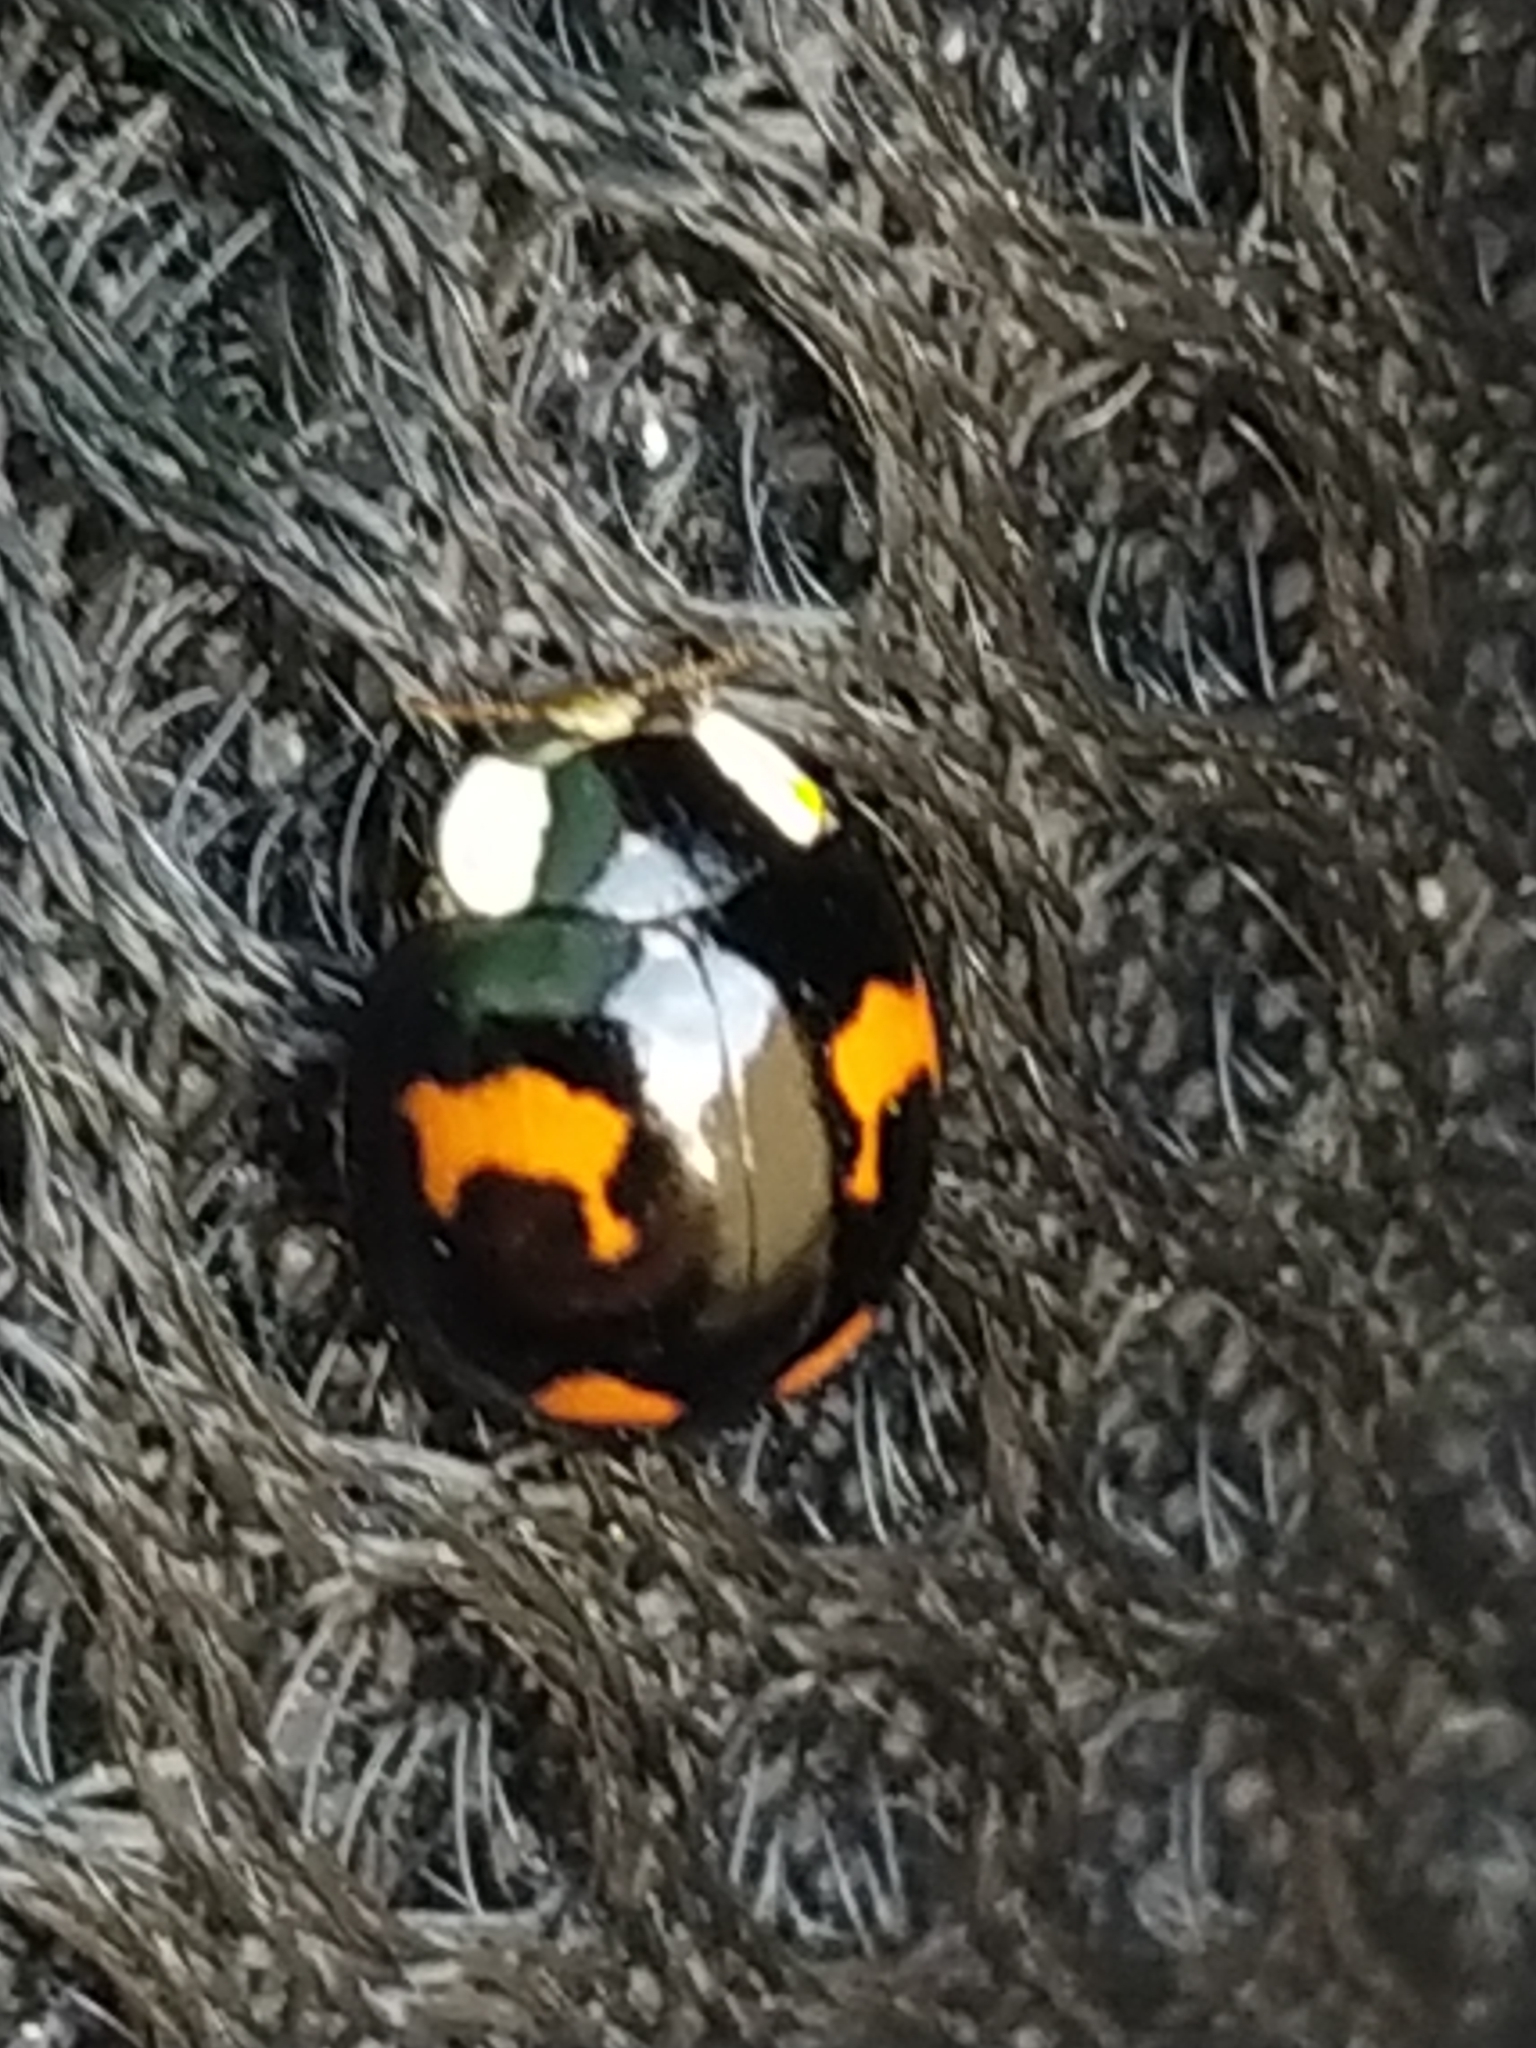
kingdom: Animalia
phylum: Arthropoda
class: Insecta
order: Coleoptera
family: Coccinellidae
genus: Harmonia
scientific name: Harmonia axyridis
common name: Harlequin ladybird
